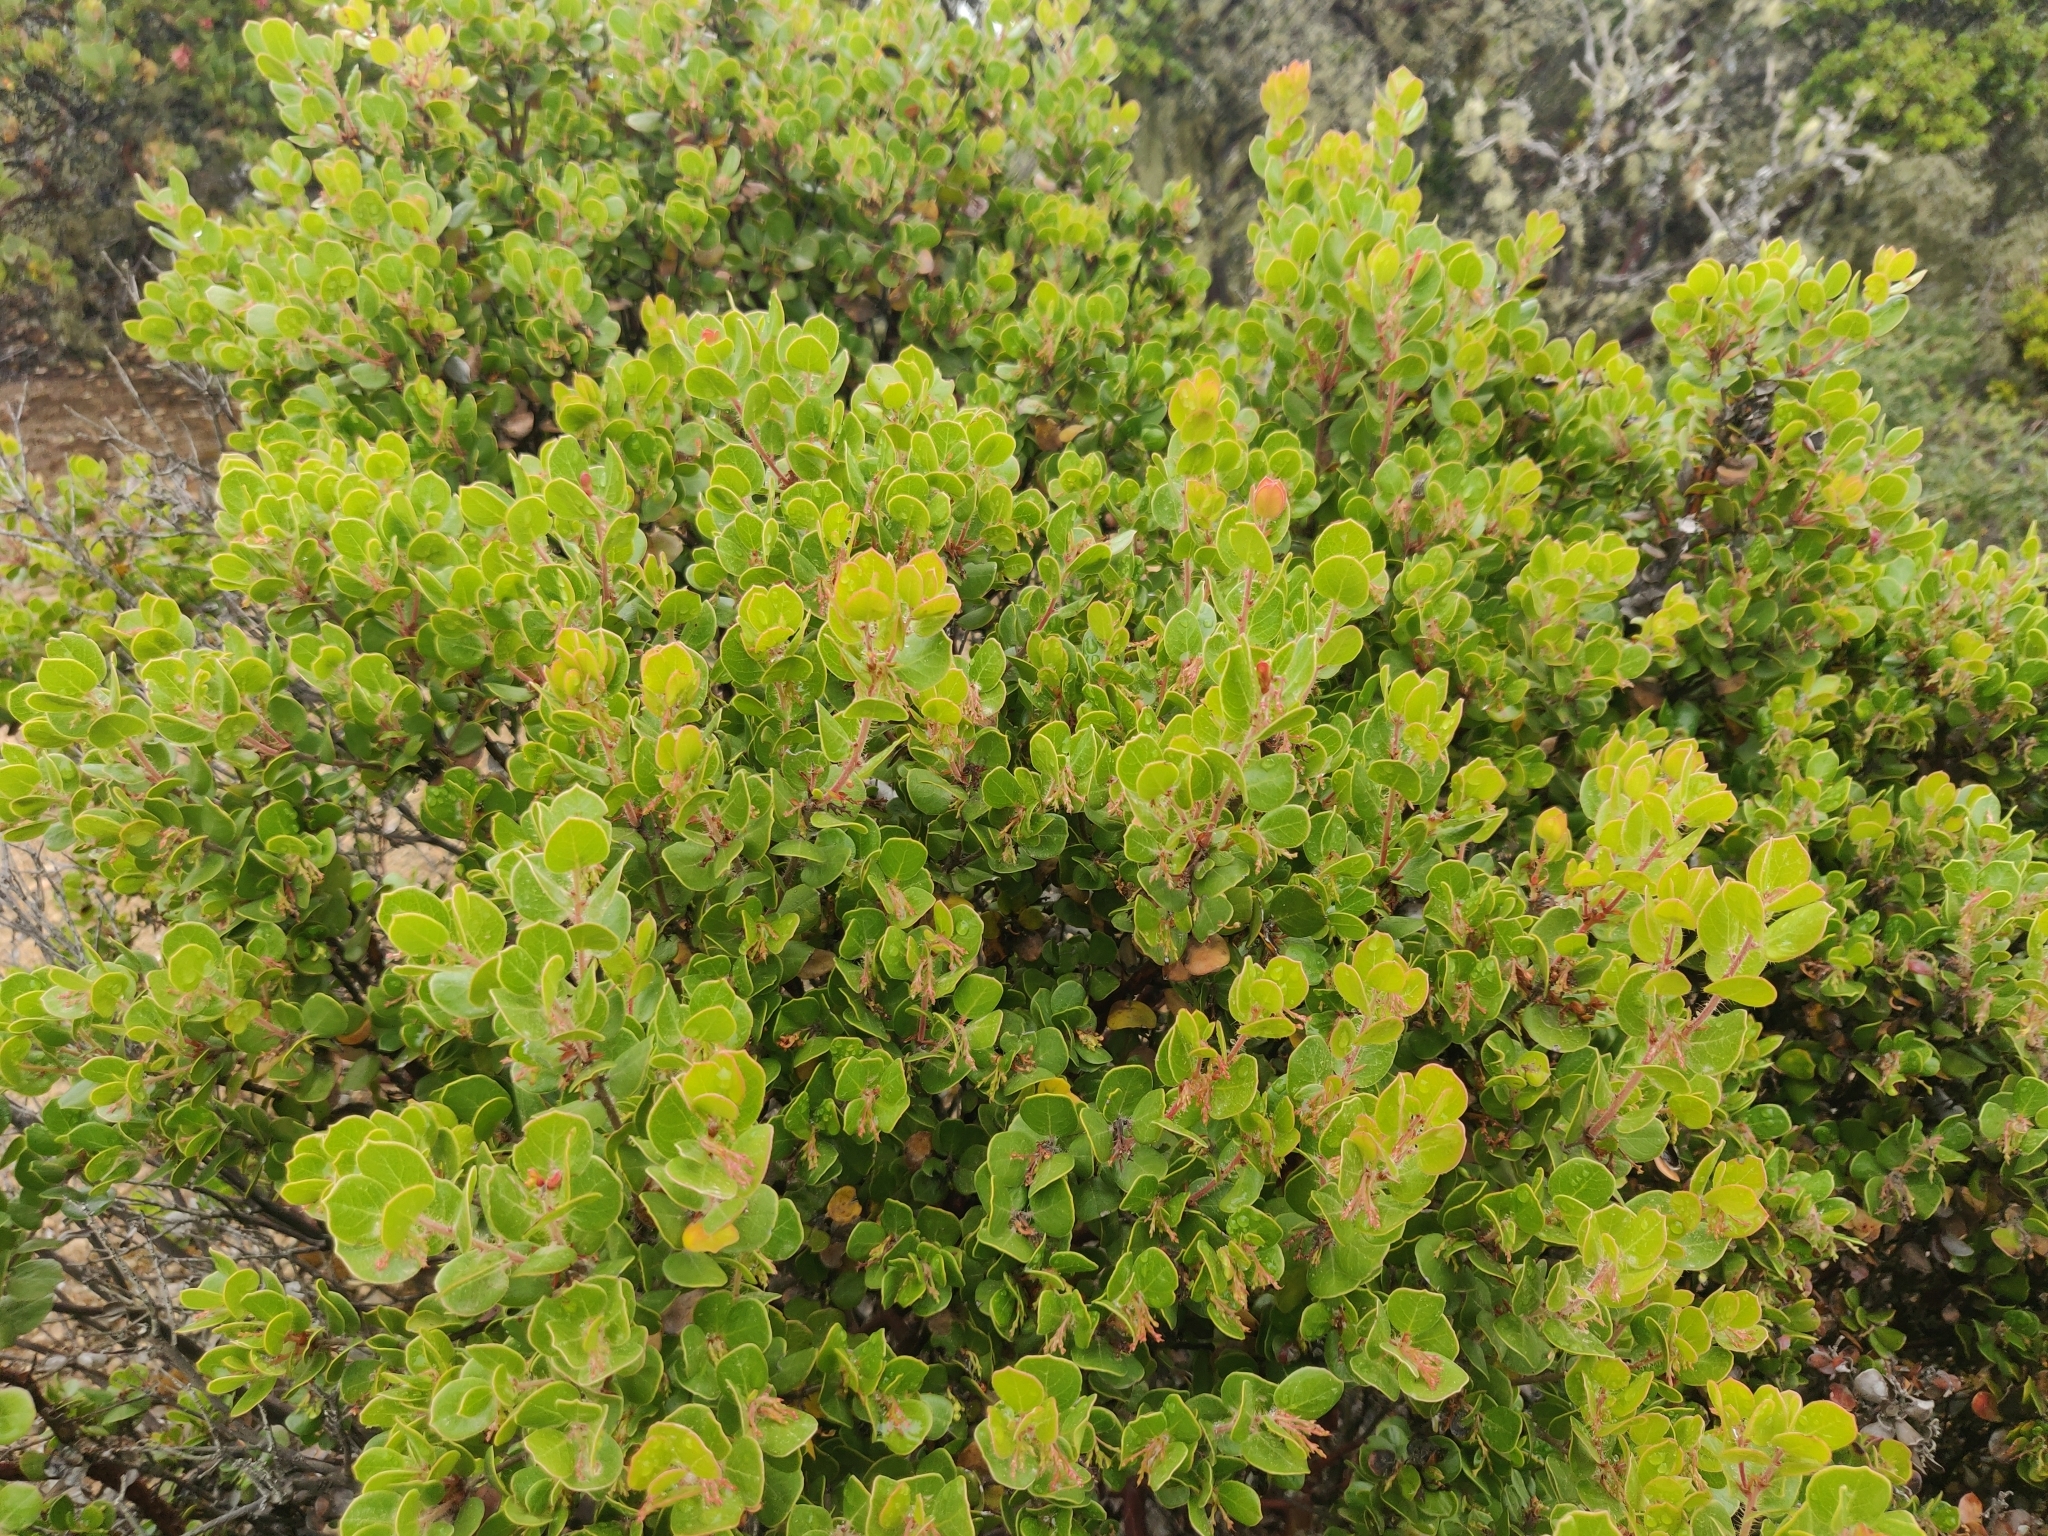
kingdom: Plantae
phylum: Tracheophyta
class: Magnoliopsida
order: Ericales
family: Ericaceae
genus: Arctostaphylos
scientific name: Arctostaphylos nummularia
